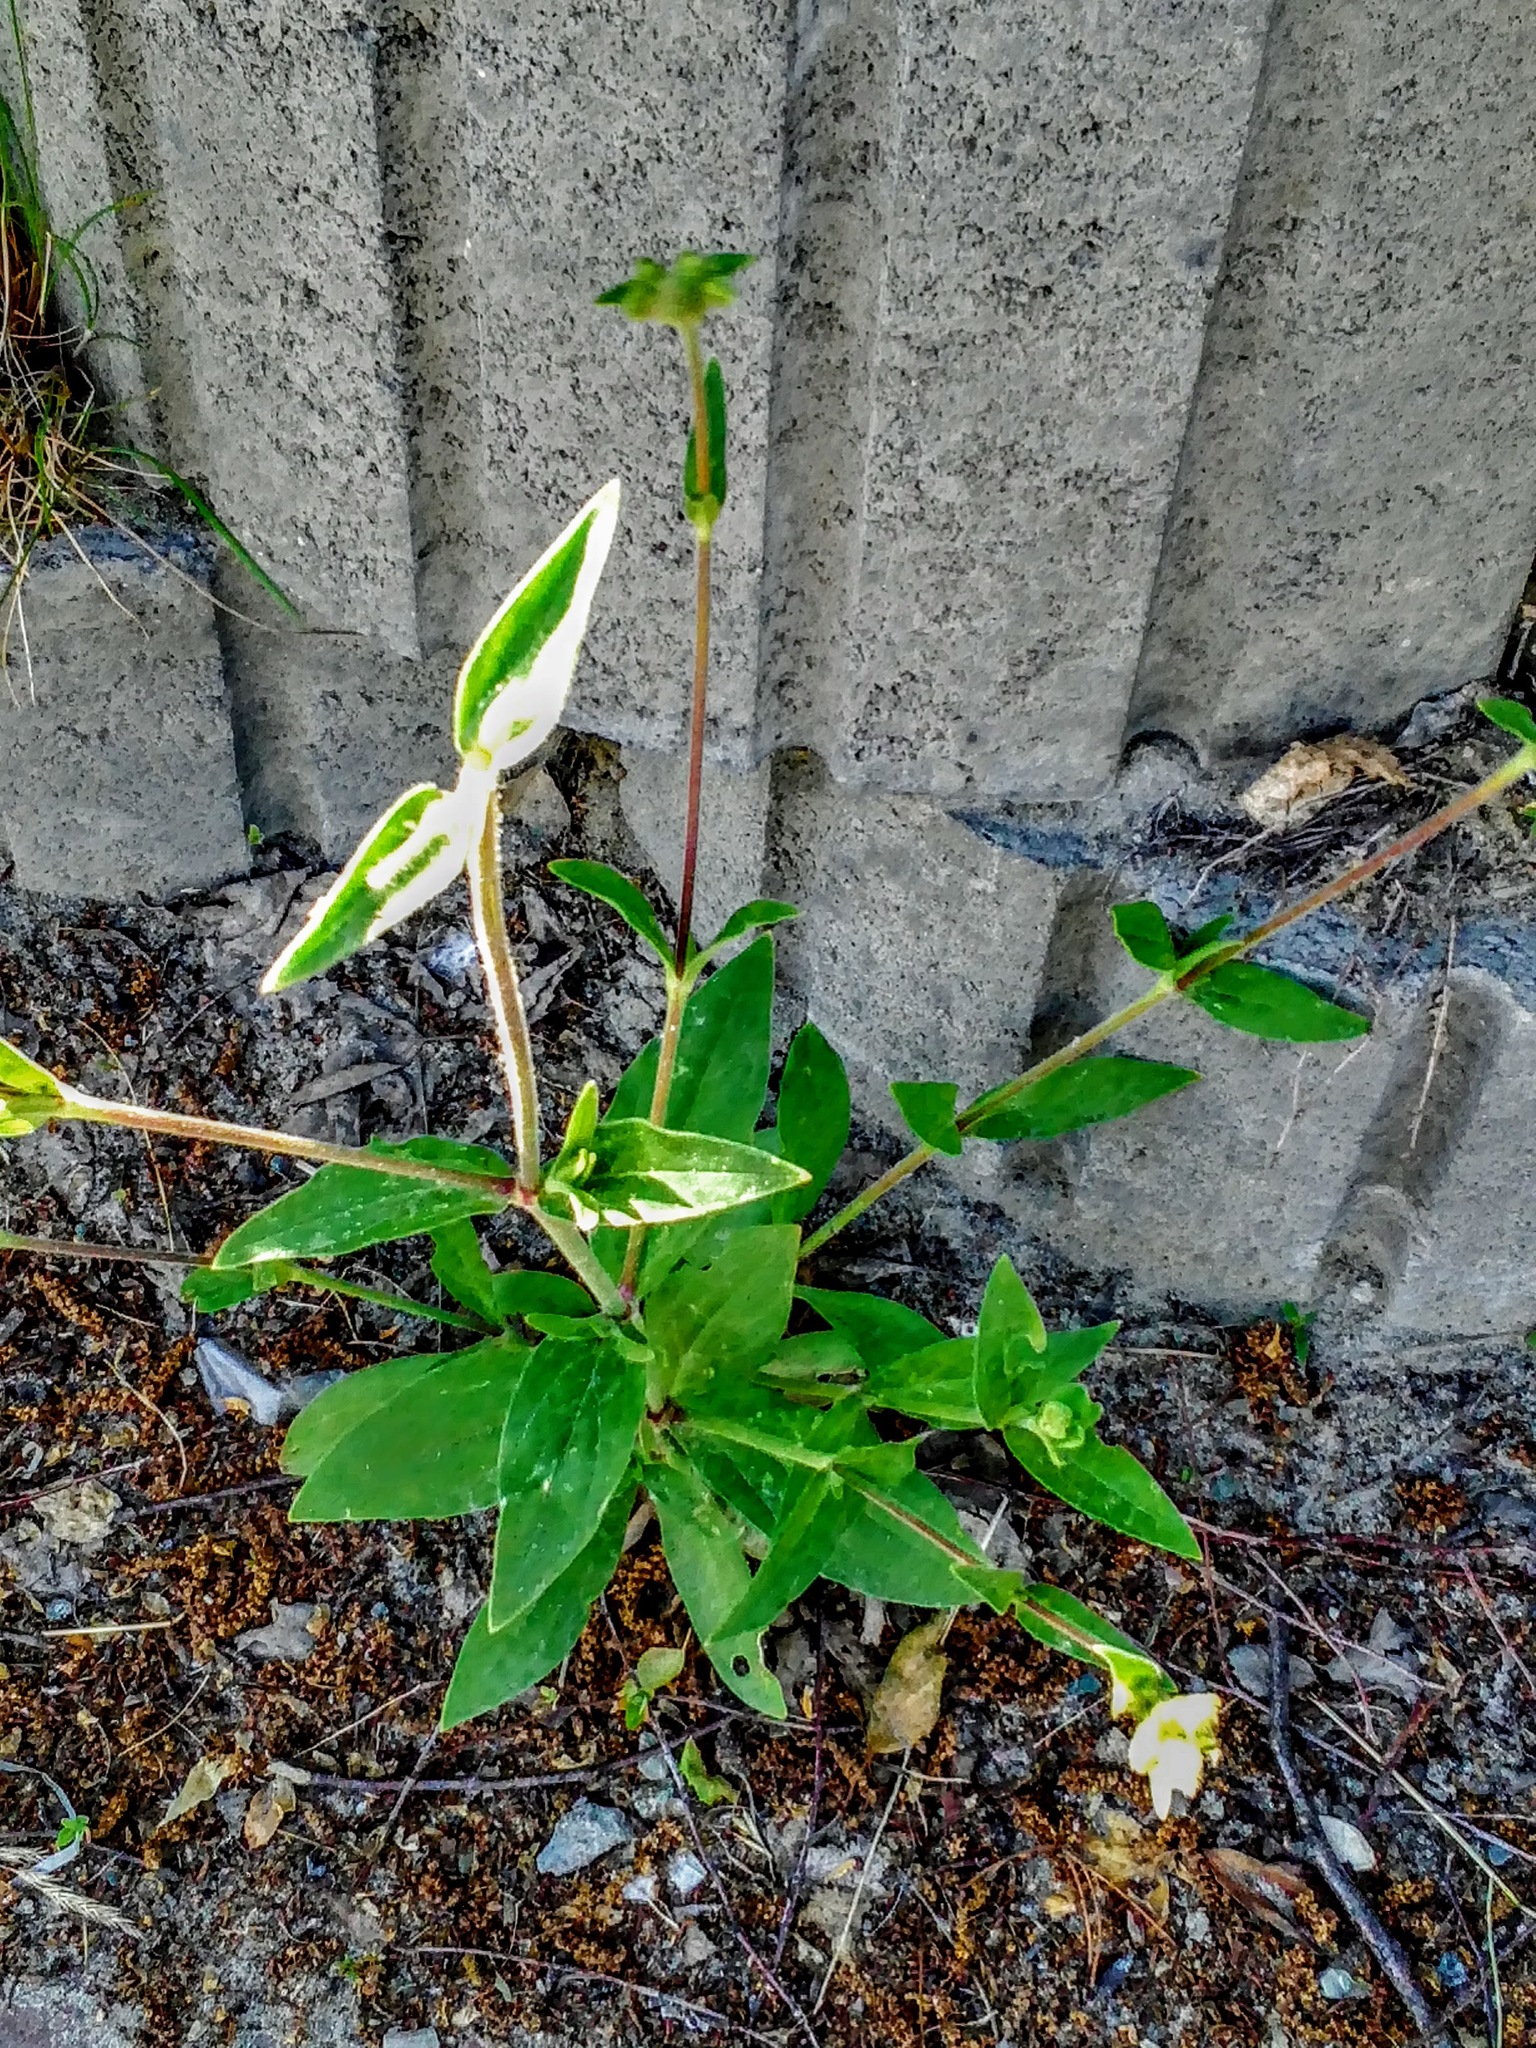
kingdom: Plantae
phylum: Tracheophyta
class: Magnoliopsida
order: Caryophyllales
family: Caryophyllaceae
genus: Silene
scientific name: Silene latifolia
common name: White campion
